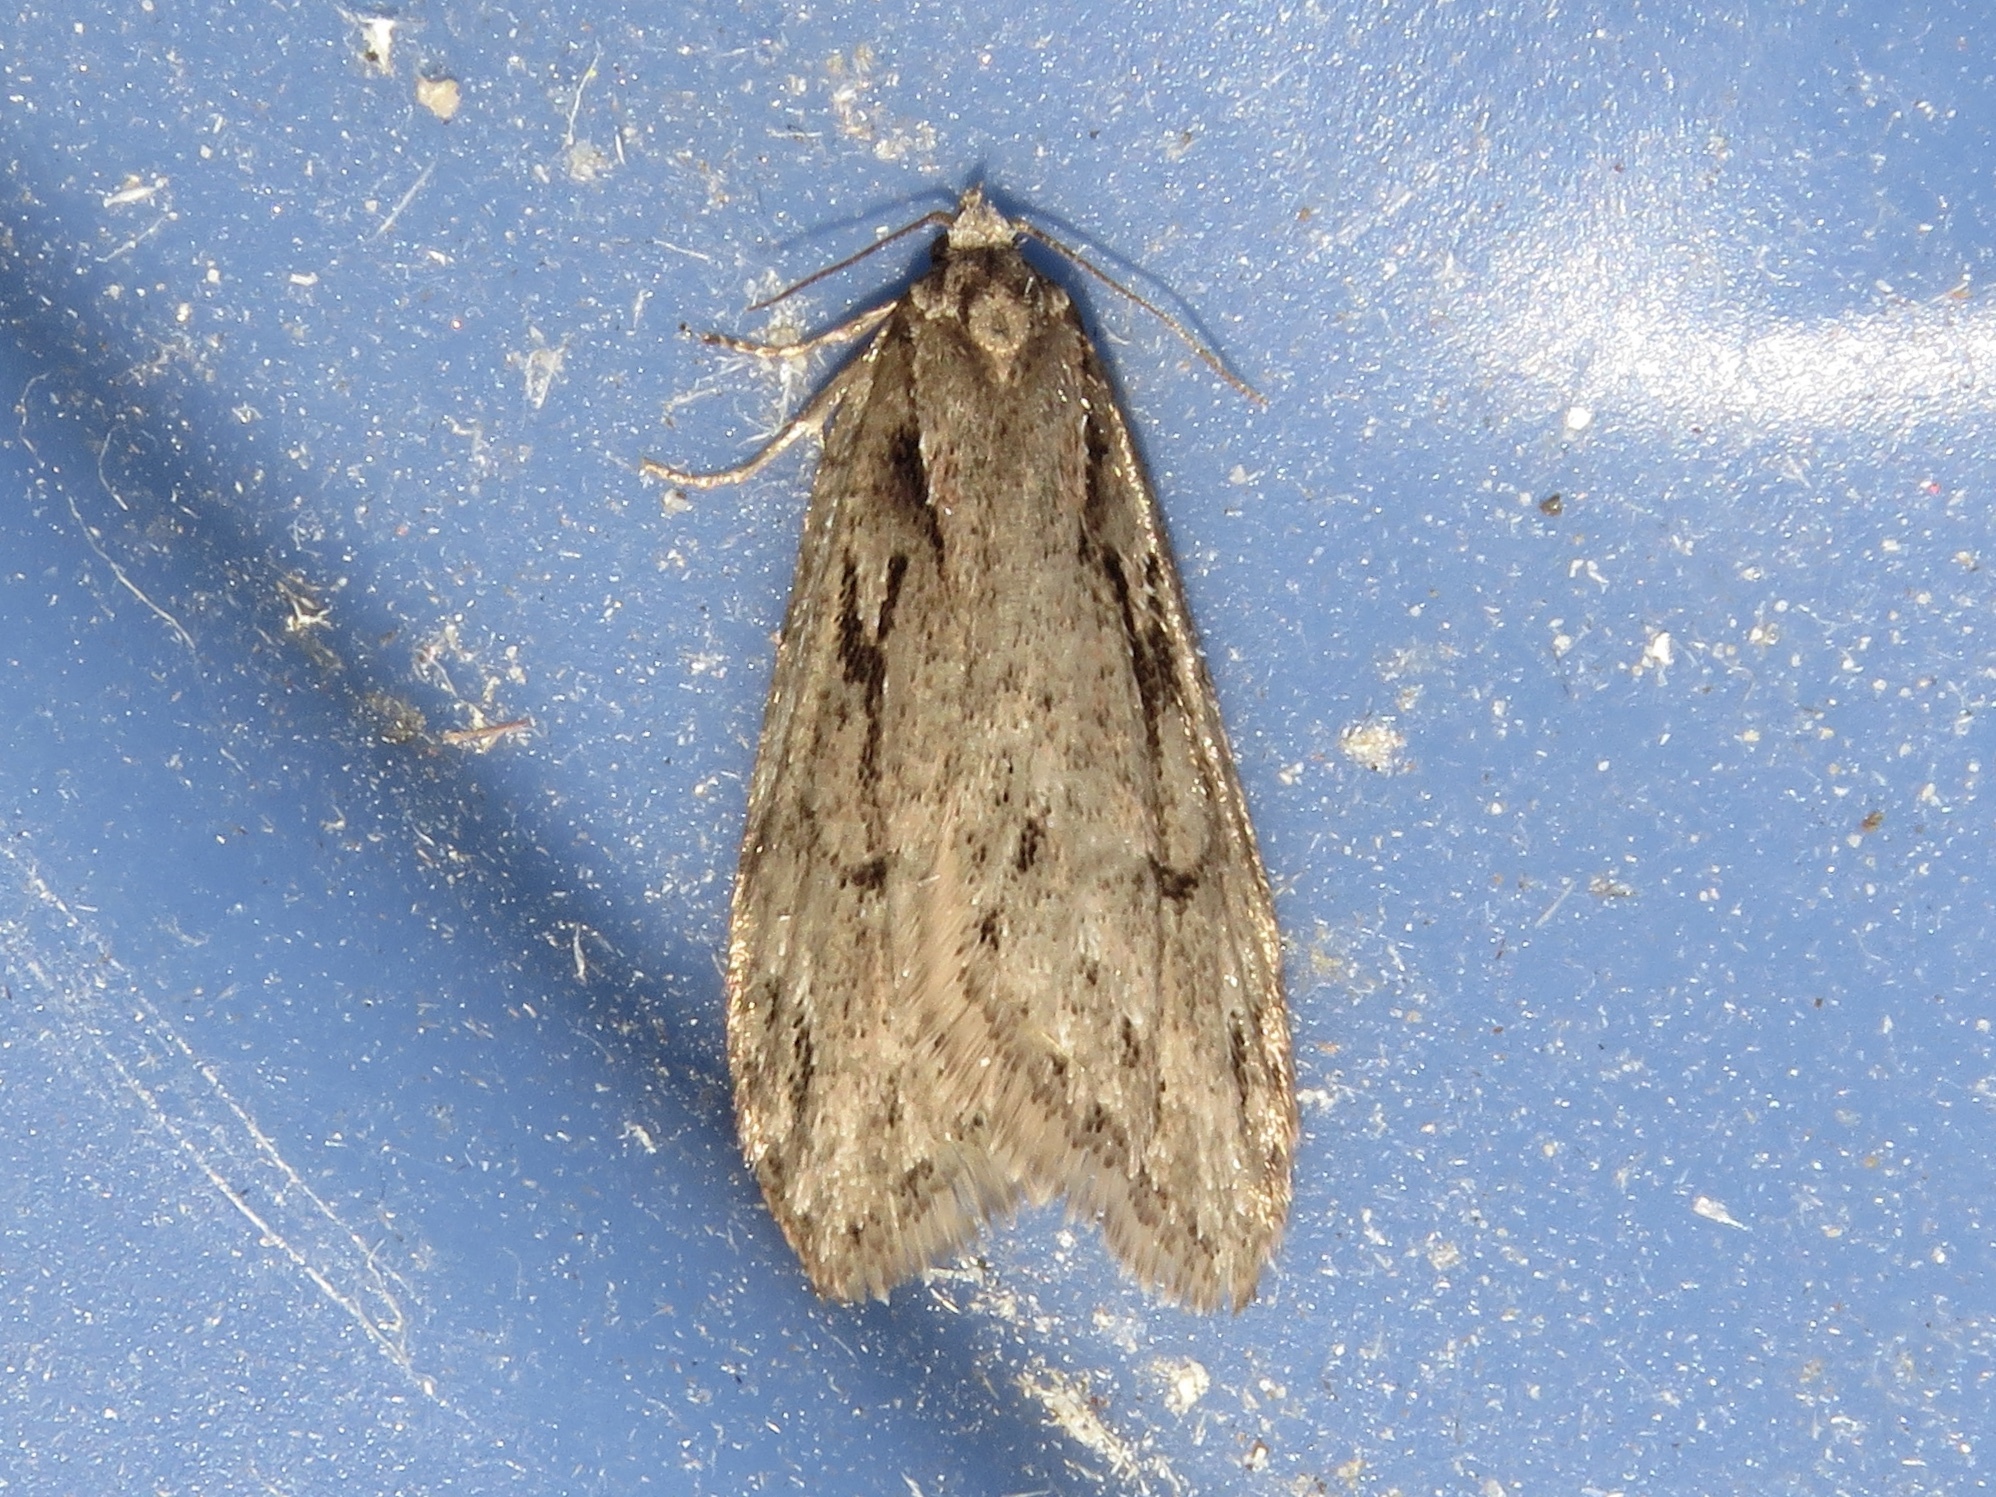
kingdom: Animalia
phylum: Arthropoda
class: Insecta
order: Lepidoptera
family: Depressariidae
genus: Semioscopis
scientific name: Semioscopis aurorella
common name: Aurora flatbody moth
